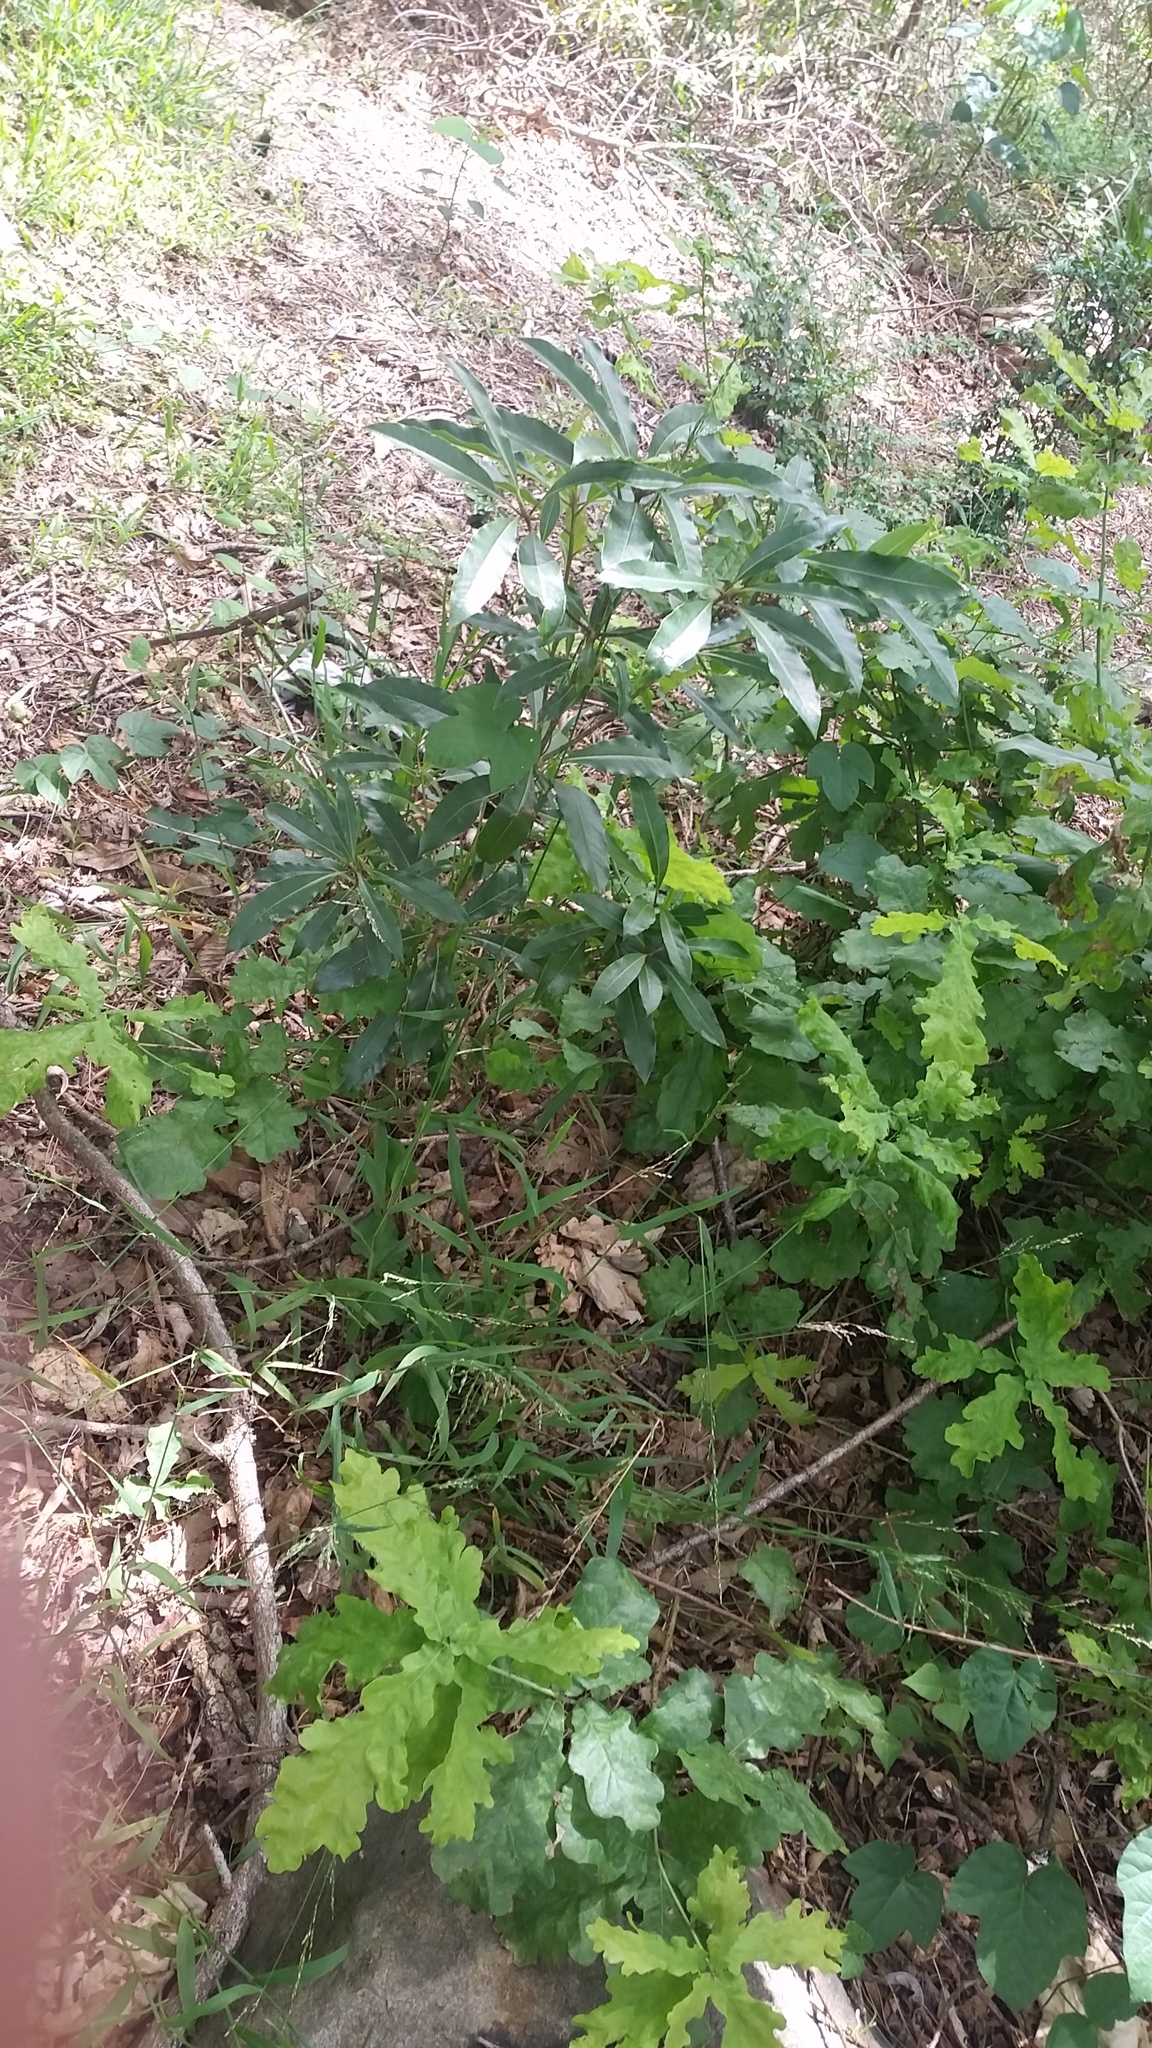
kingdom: Plantae
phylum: Tracheophyta
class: Magnoliopsida
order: Apiales
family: Pittosporaceae
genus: Pittosporum
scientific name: Pittosporum undulatum
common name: Australian cheesewood
